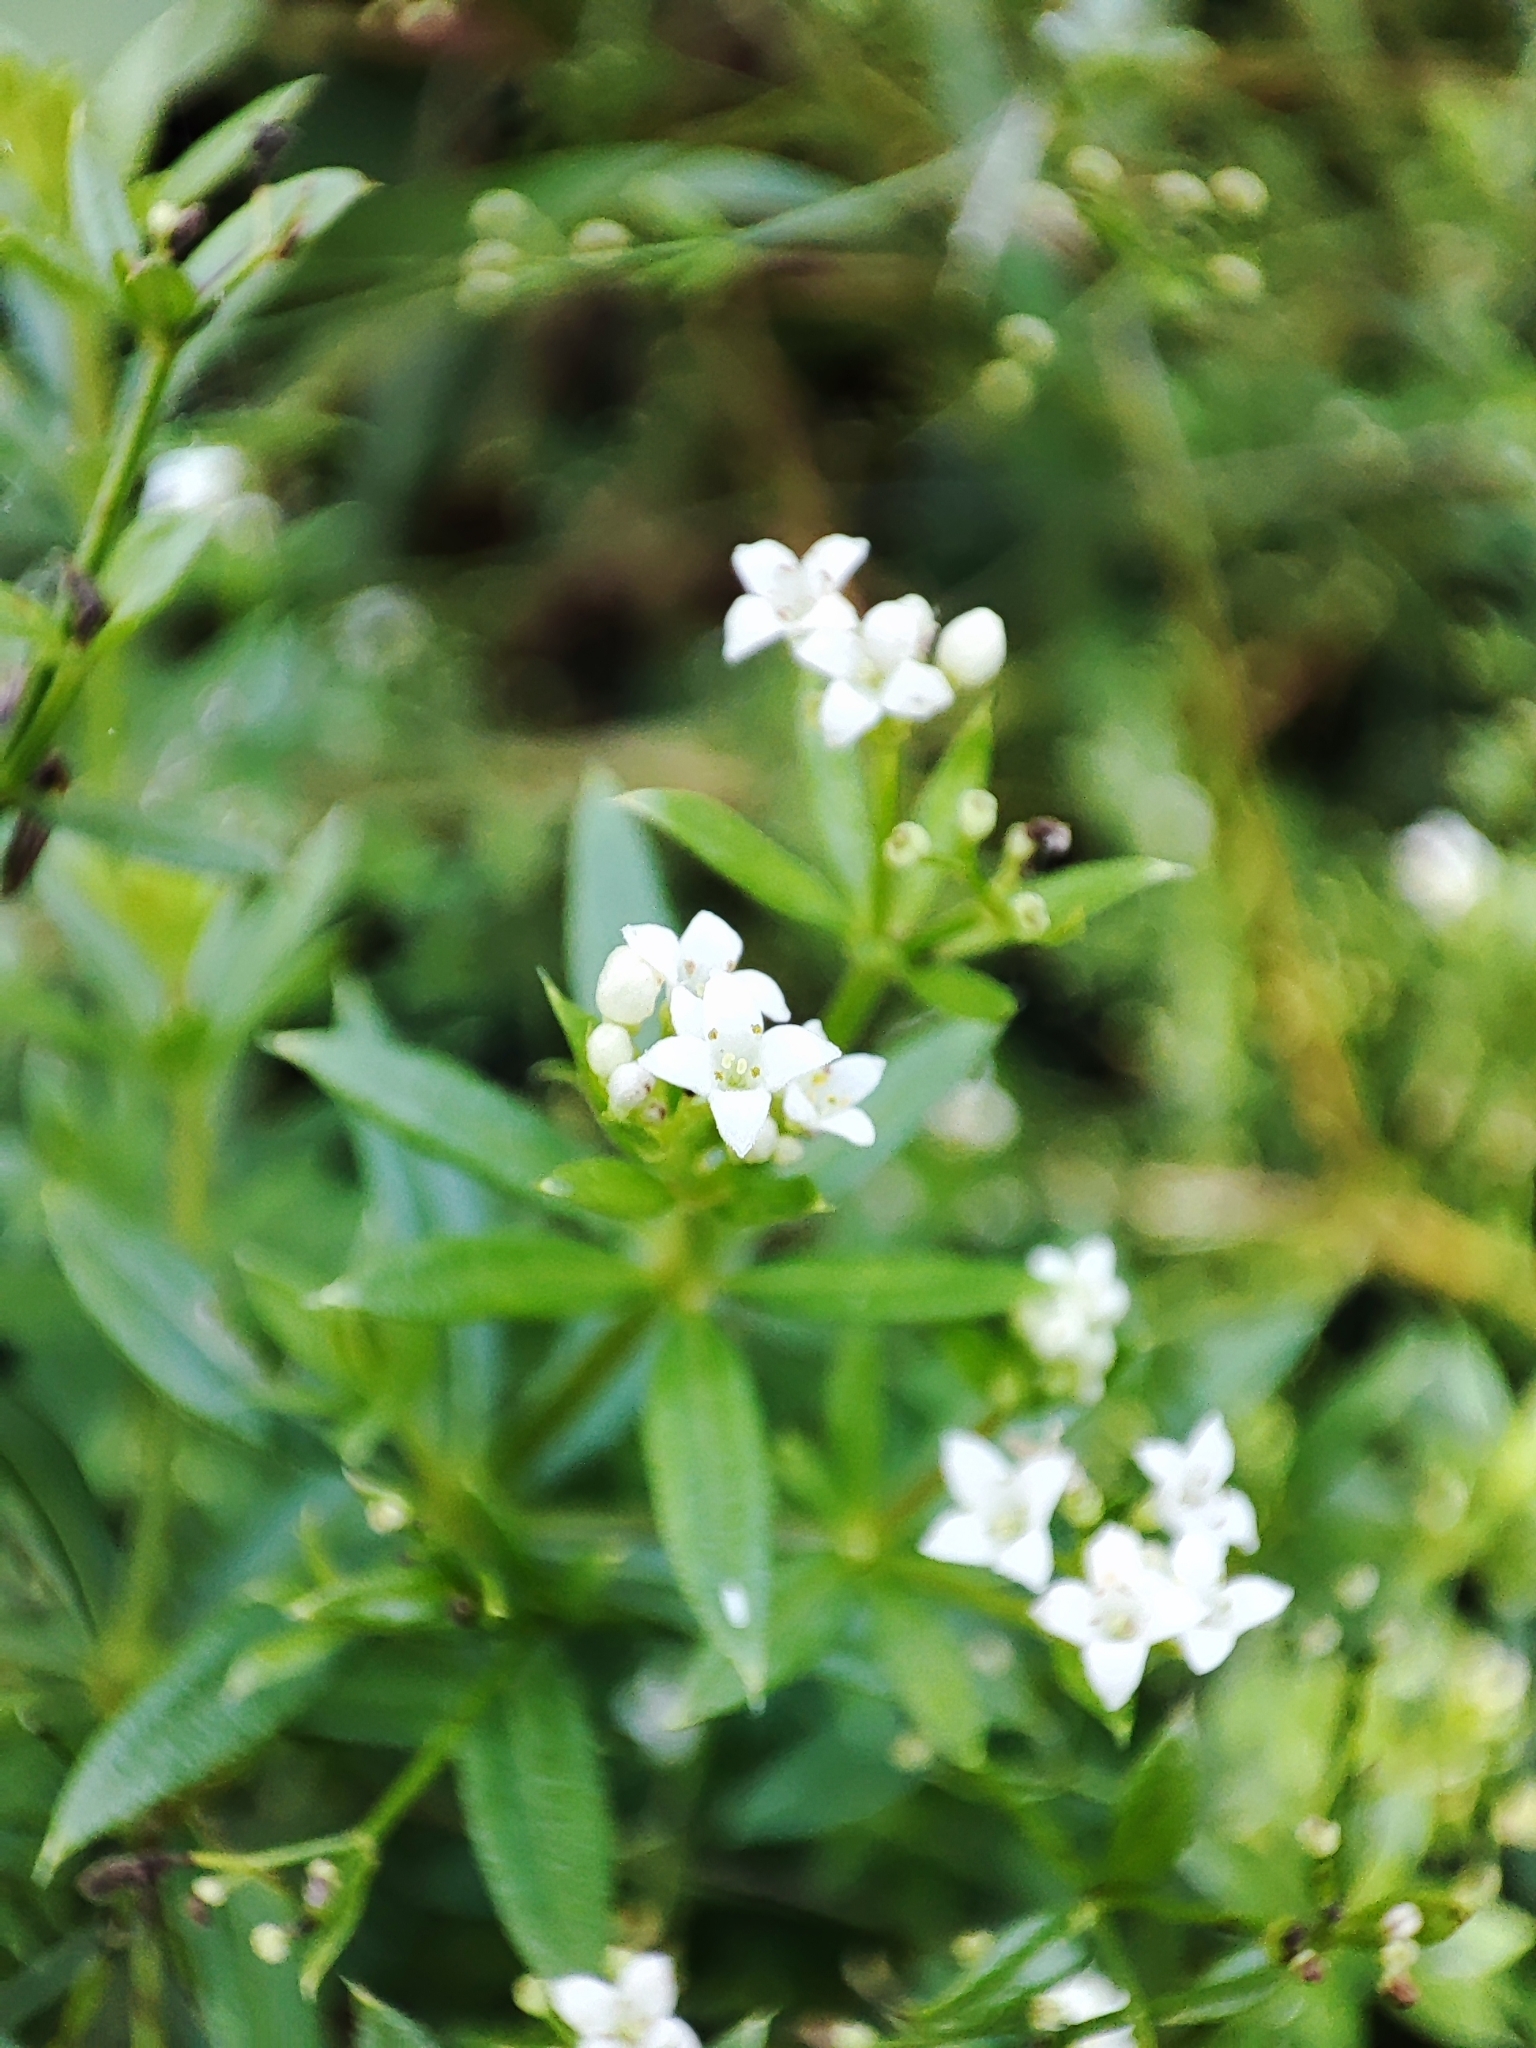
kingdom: Plantae
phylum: Tracheophyta
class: Magnoliopsida
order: Gentianales
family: Rubiaceae
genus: Galium
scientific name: Galium rivale
